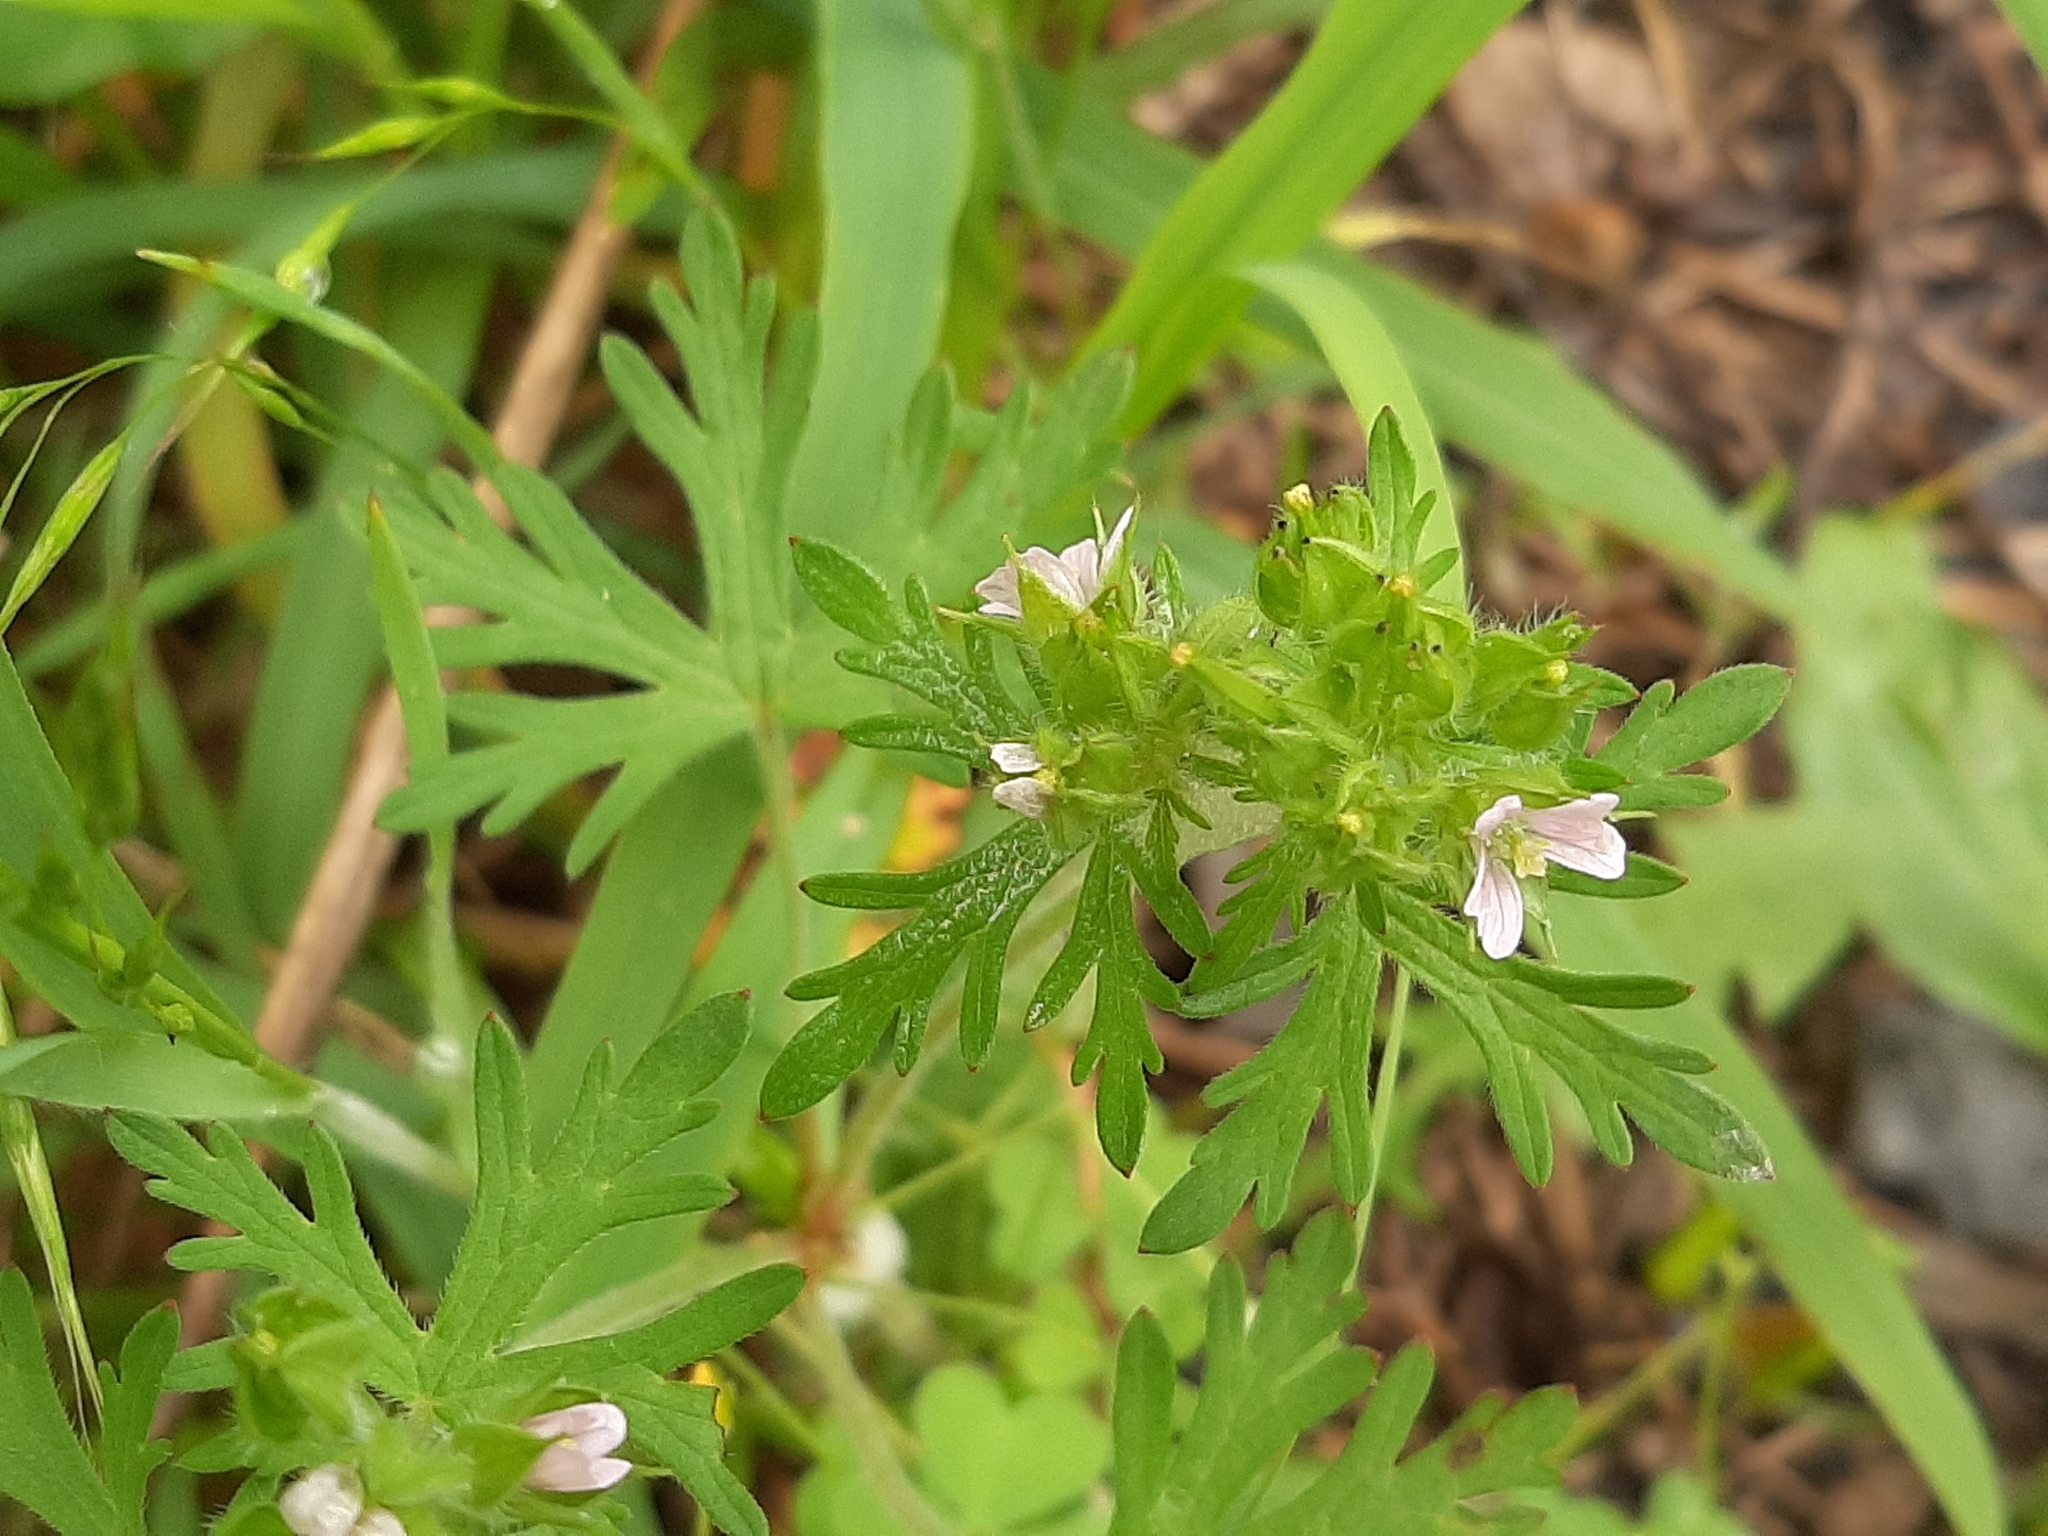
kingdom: Plantae
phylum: Tracheophyta
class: Magnoliopsida
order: Geraniales
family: Geraniaceae
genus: Geranium
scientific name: Geranium carolinianum
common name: Carolina crane's-bill
